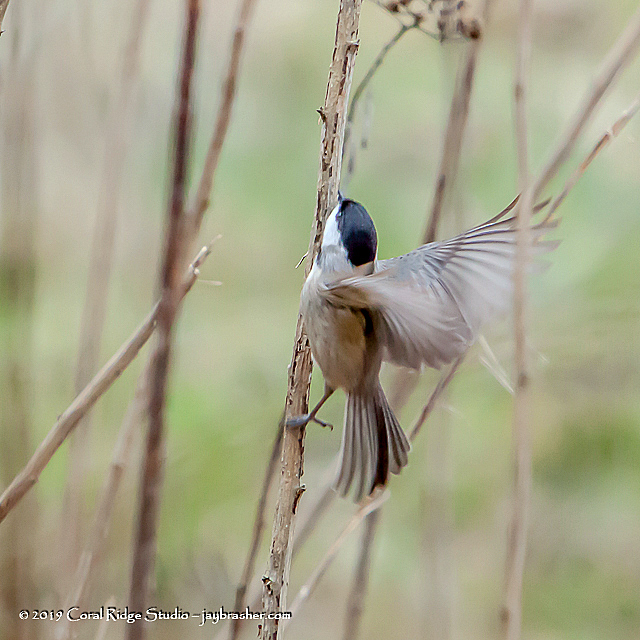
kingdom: Animalia
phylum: Chordata
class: Aves
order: Passeriformes
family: Paridae
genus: Poecile
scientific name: Poecile carolinensis
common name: Carolina chickadee
